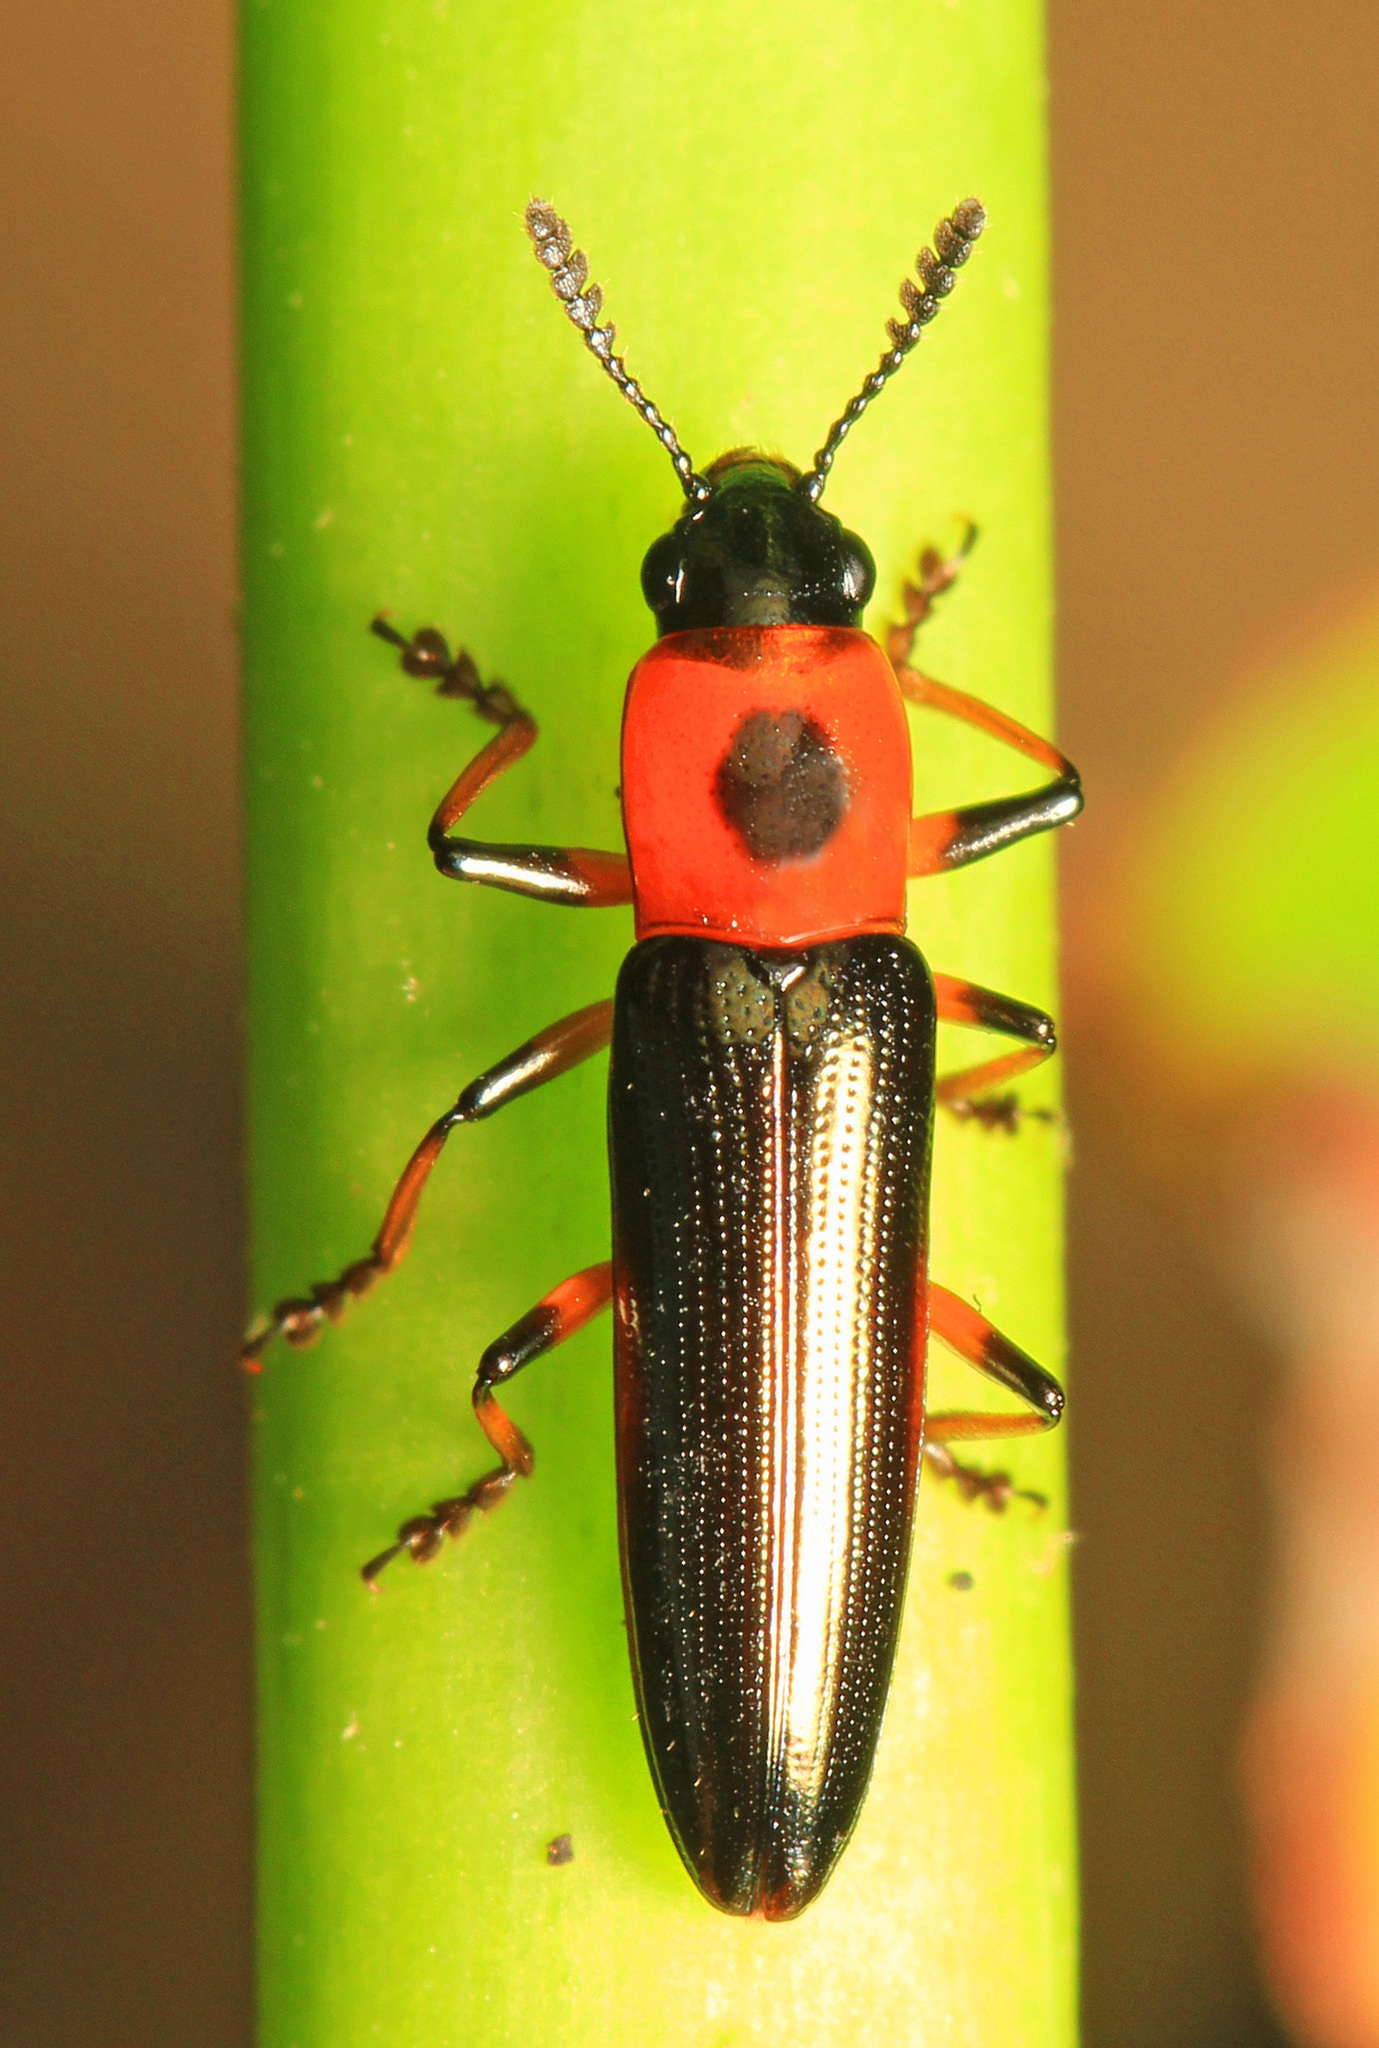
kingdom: Animalia
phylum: Arthropoda
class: Insecta
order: Coleoptera
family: Erotylidae
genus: Languria
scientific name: Languria angustata
